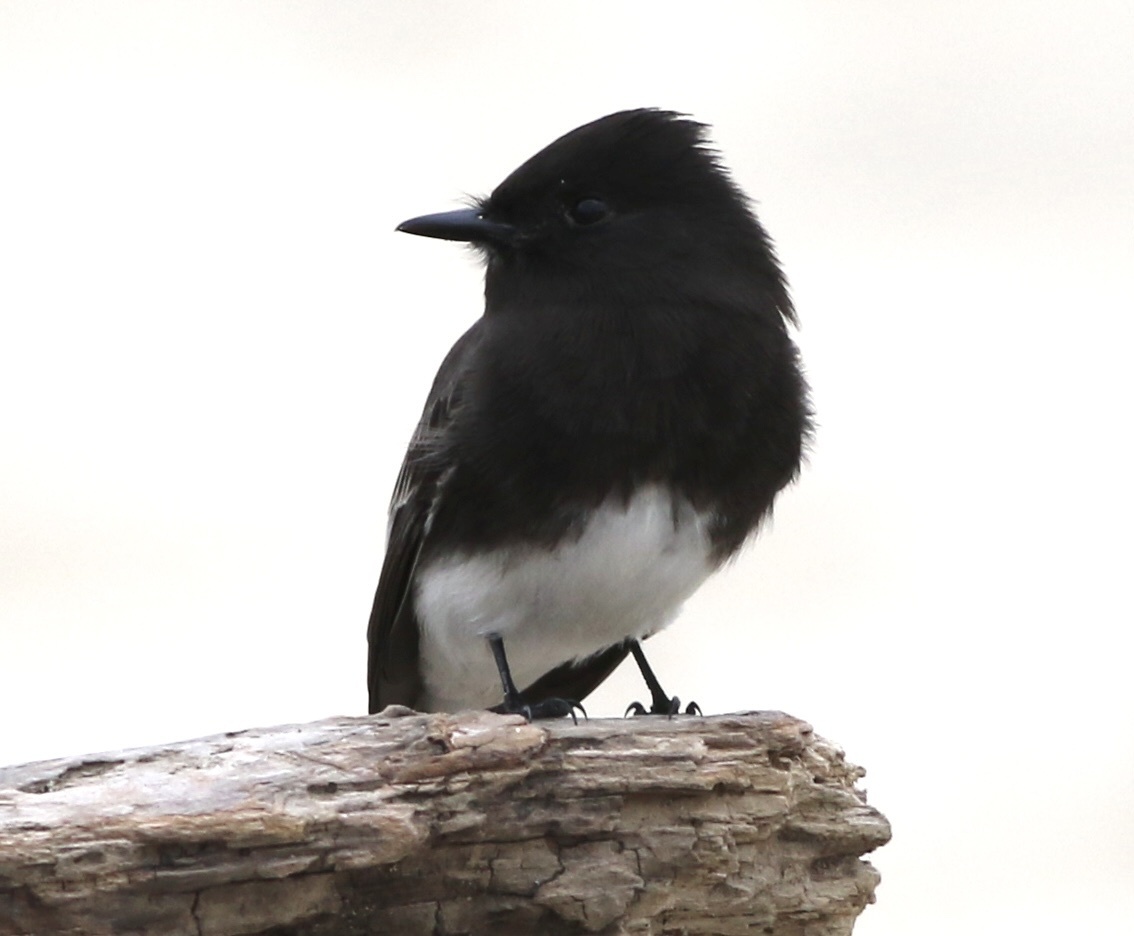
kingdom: Animalia
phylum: Chordata
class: Aves
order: Passeriformes
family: Tyrannidae
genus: Sayornis
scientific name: Sayornis nigricans
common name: Black phoebe
